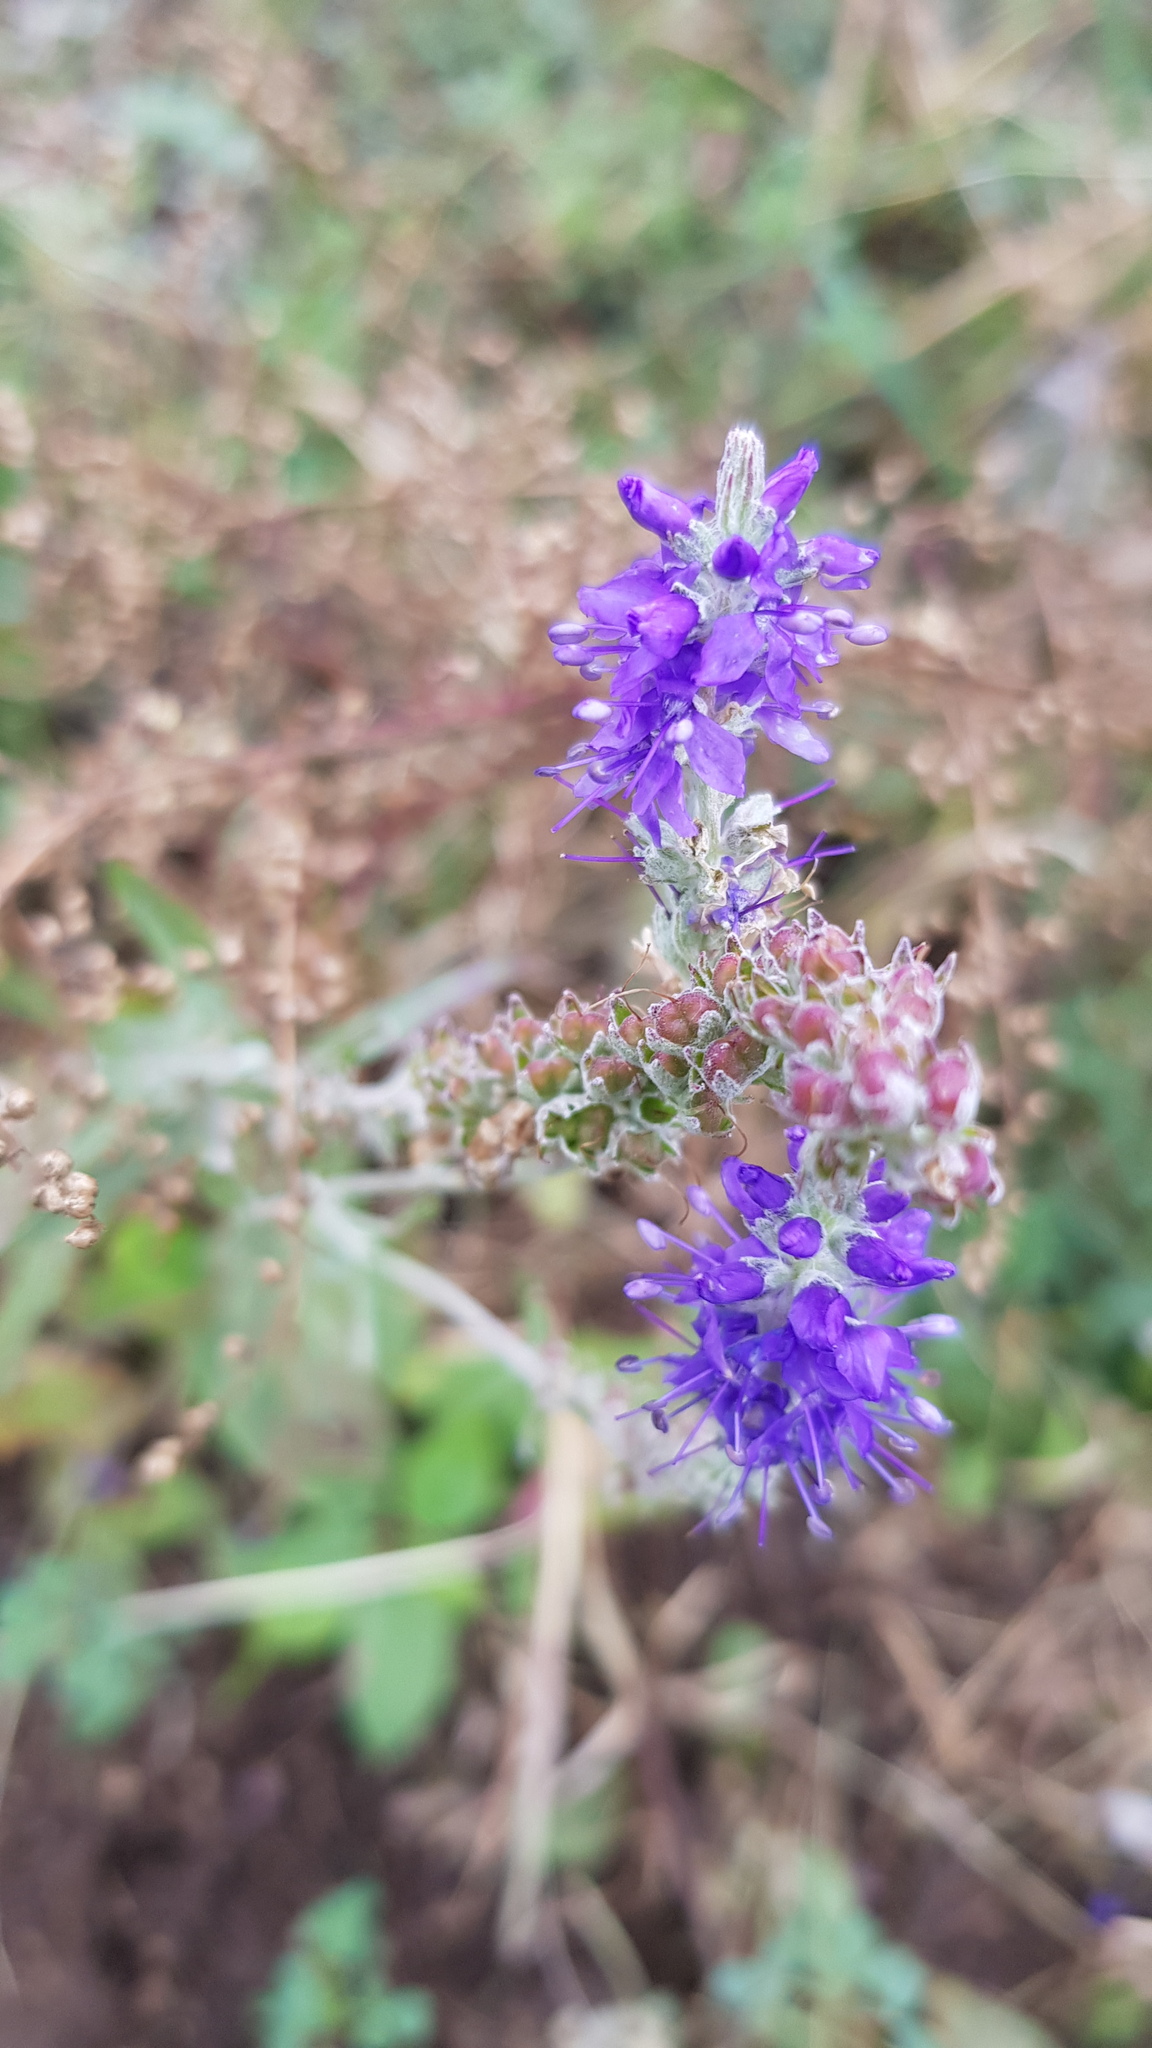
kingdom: Plantae
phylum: Tracheophyta
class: Magnoliopsida
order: Lamiales
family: Plantaginaceae
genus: Veronica
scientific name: Veronica incana
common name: Silver speedwell
